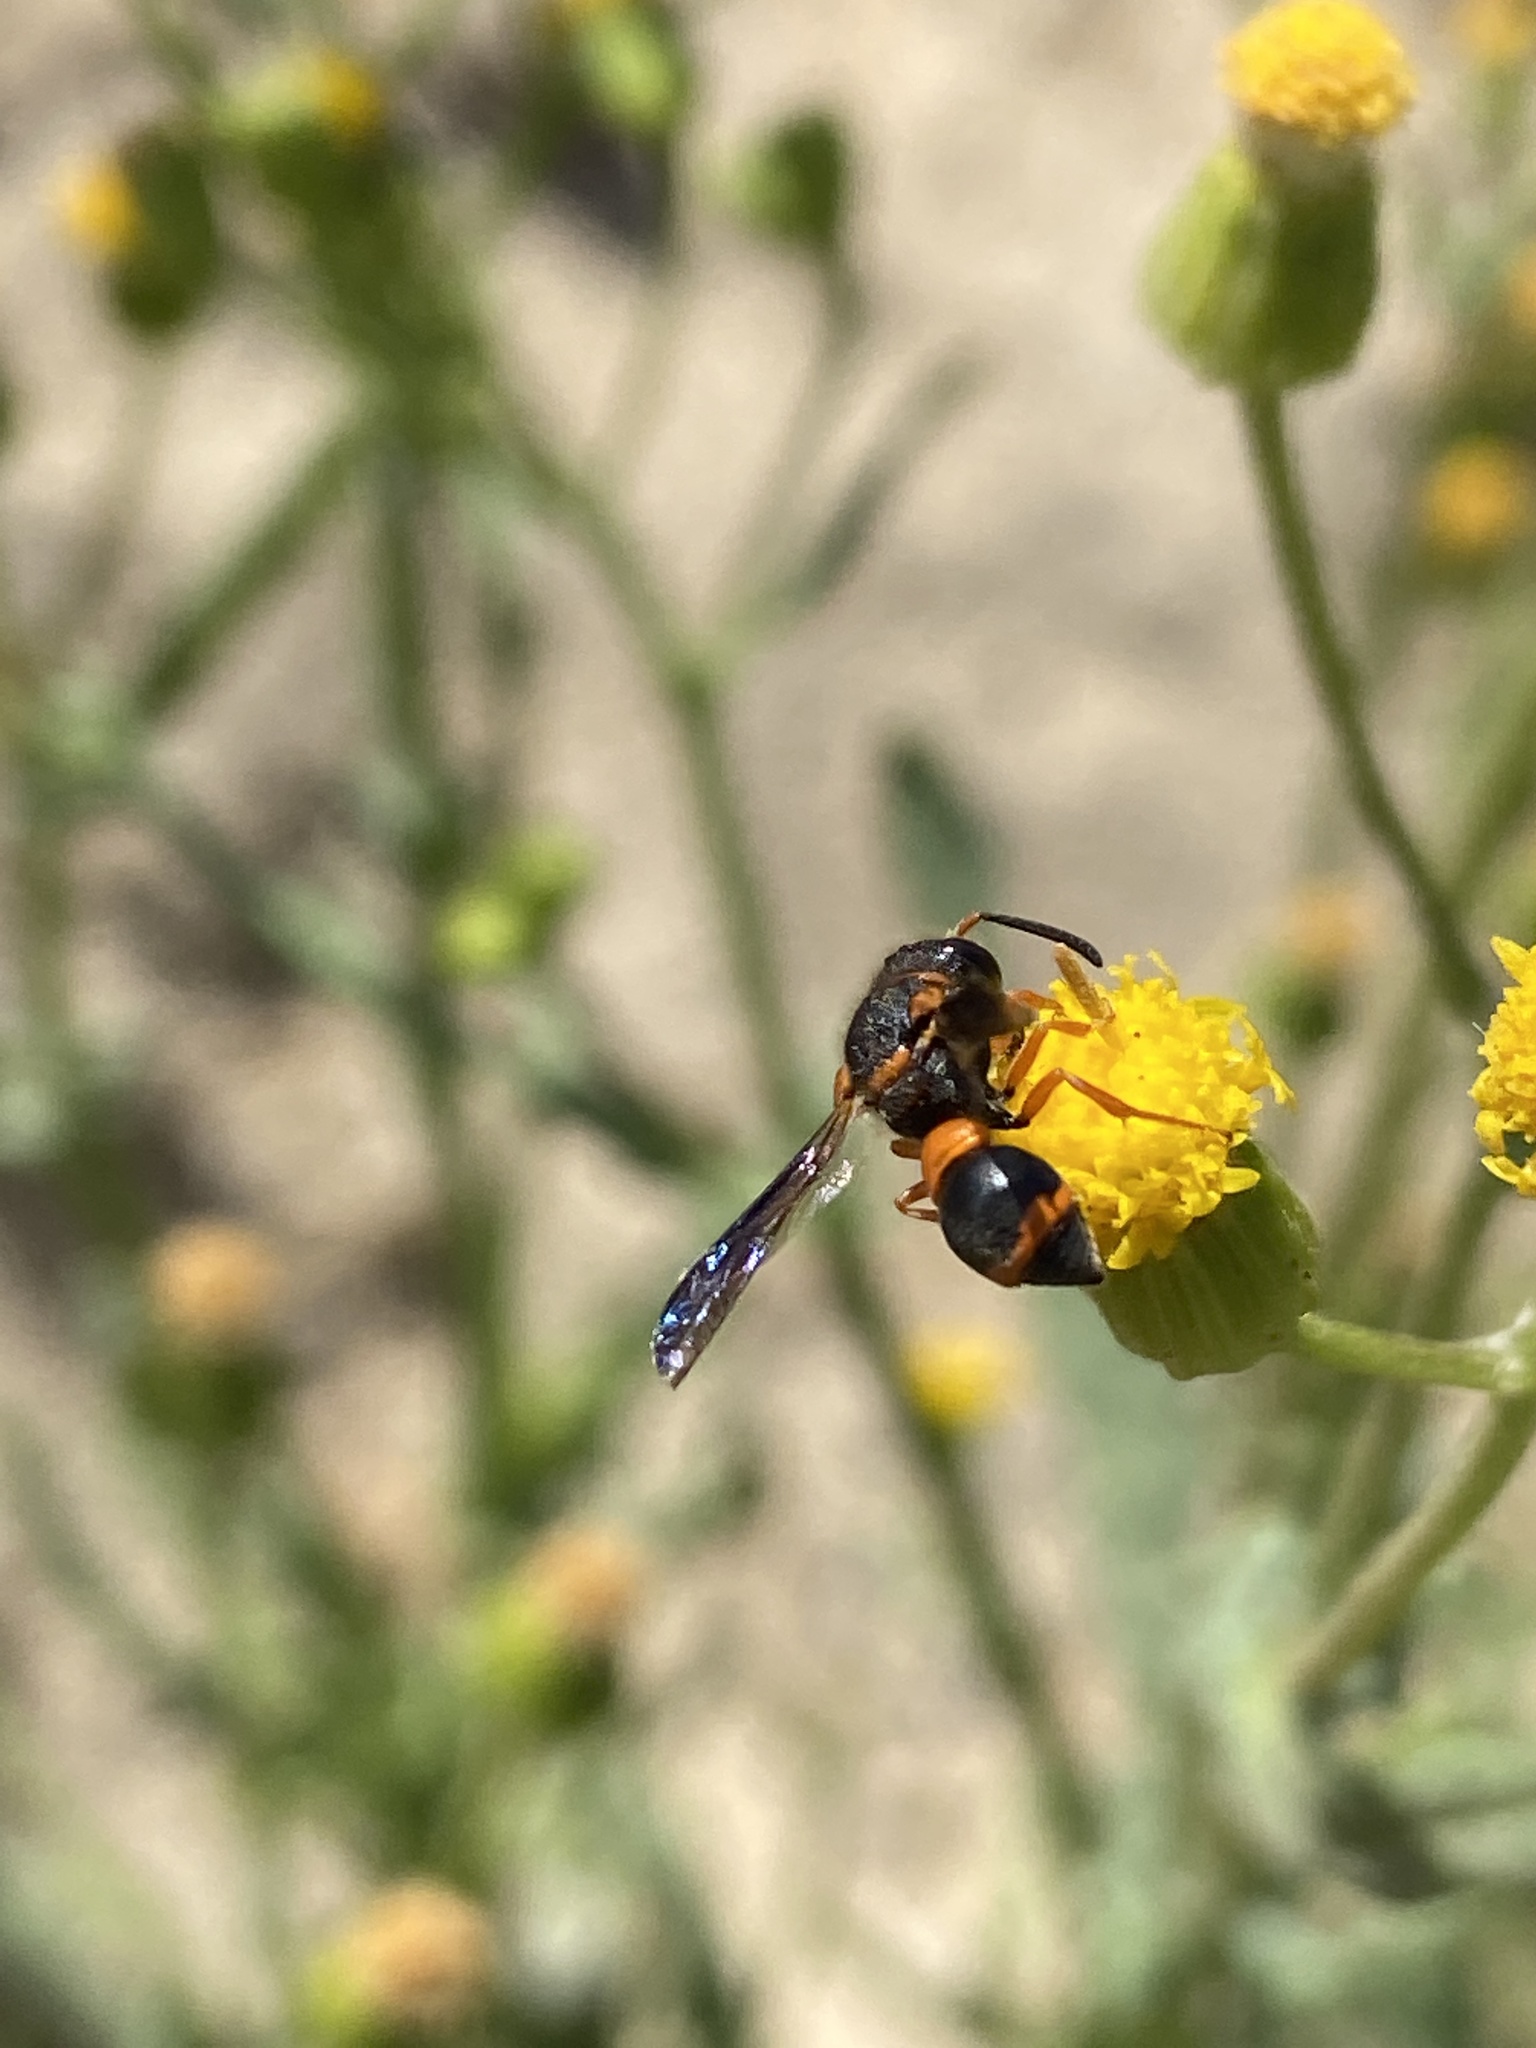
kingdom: Animalia
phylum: Arthropoda
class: Insecta
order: Hymenoptera
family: Eumenidae
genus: Leptochilus
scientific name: Leptochilus fortunatus
